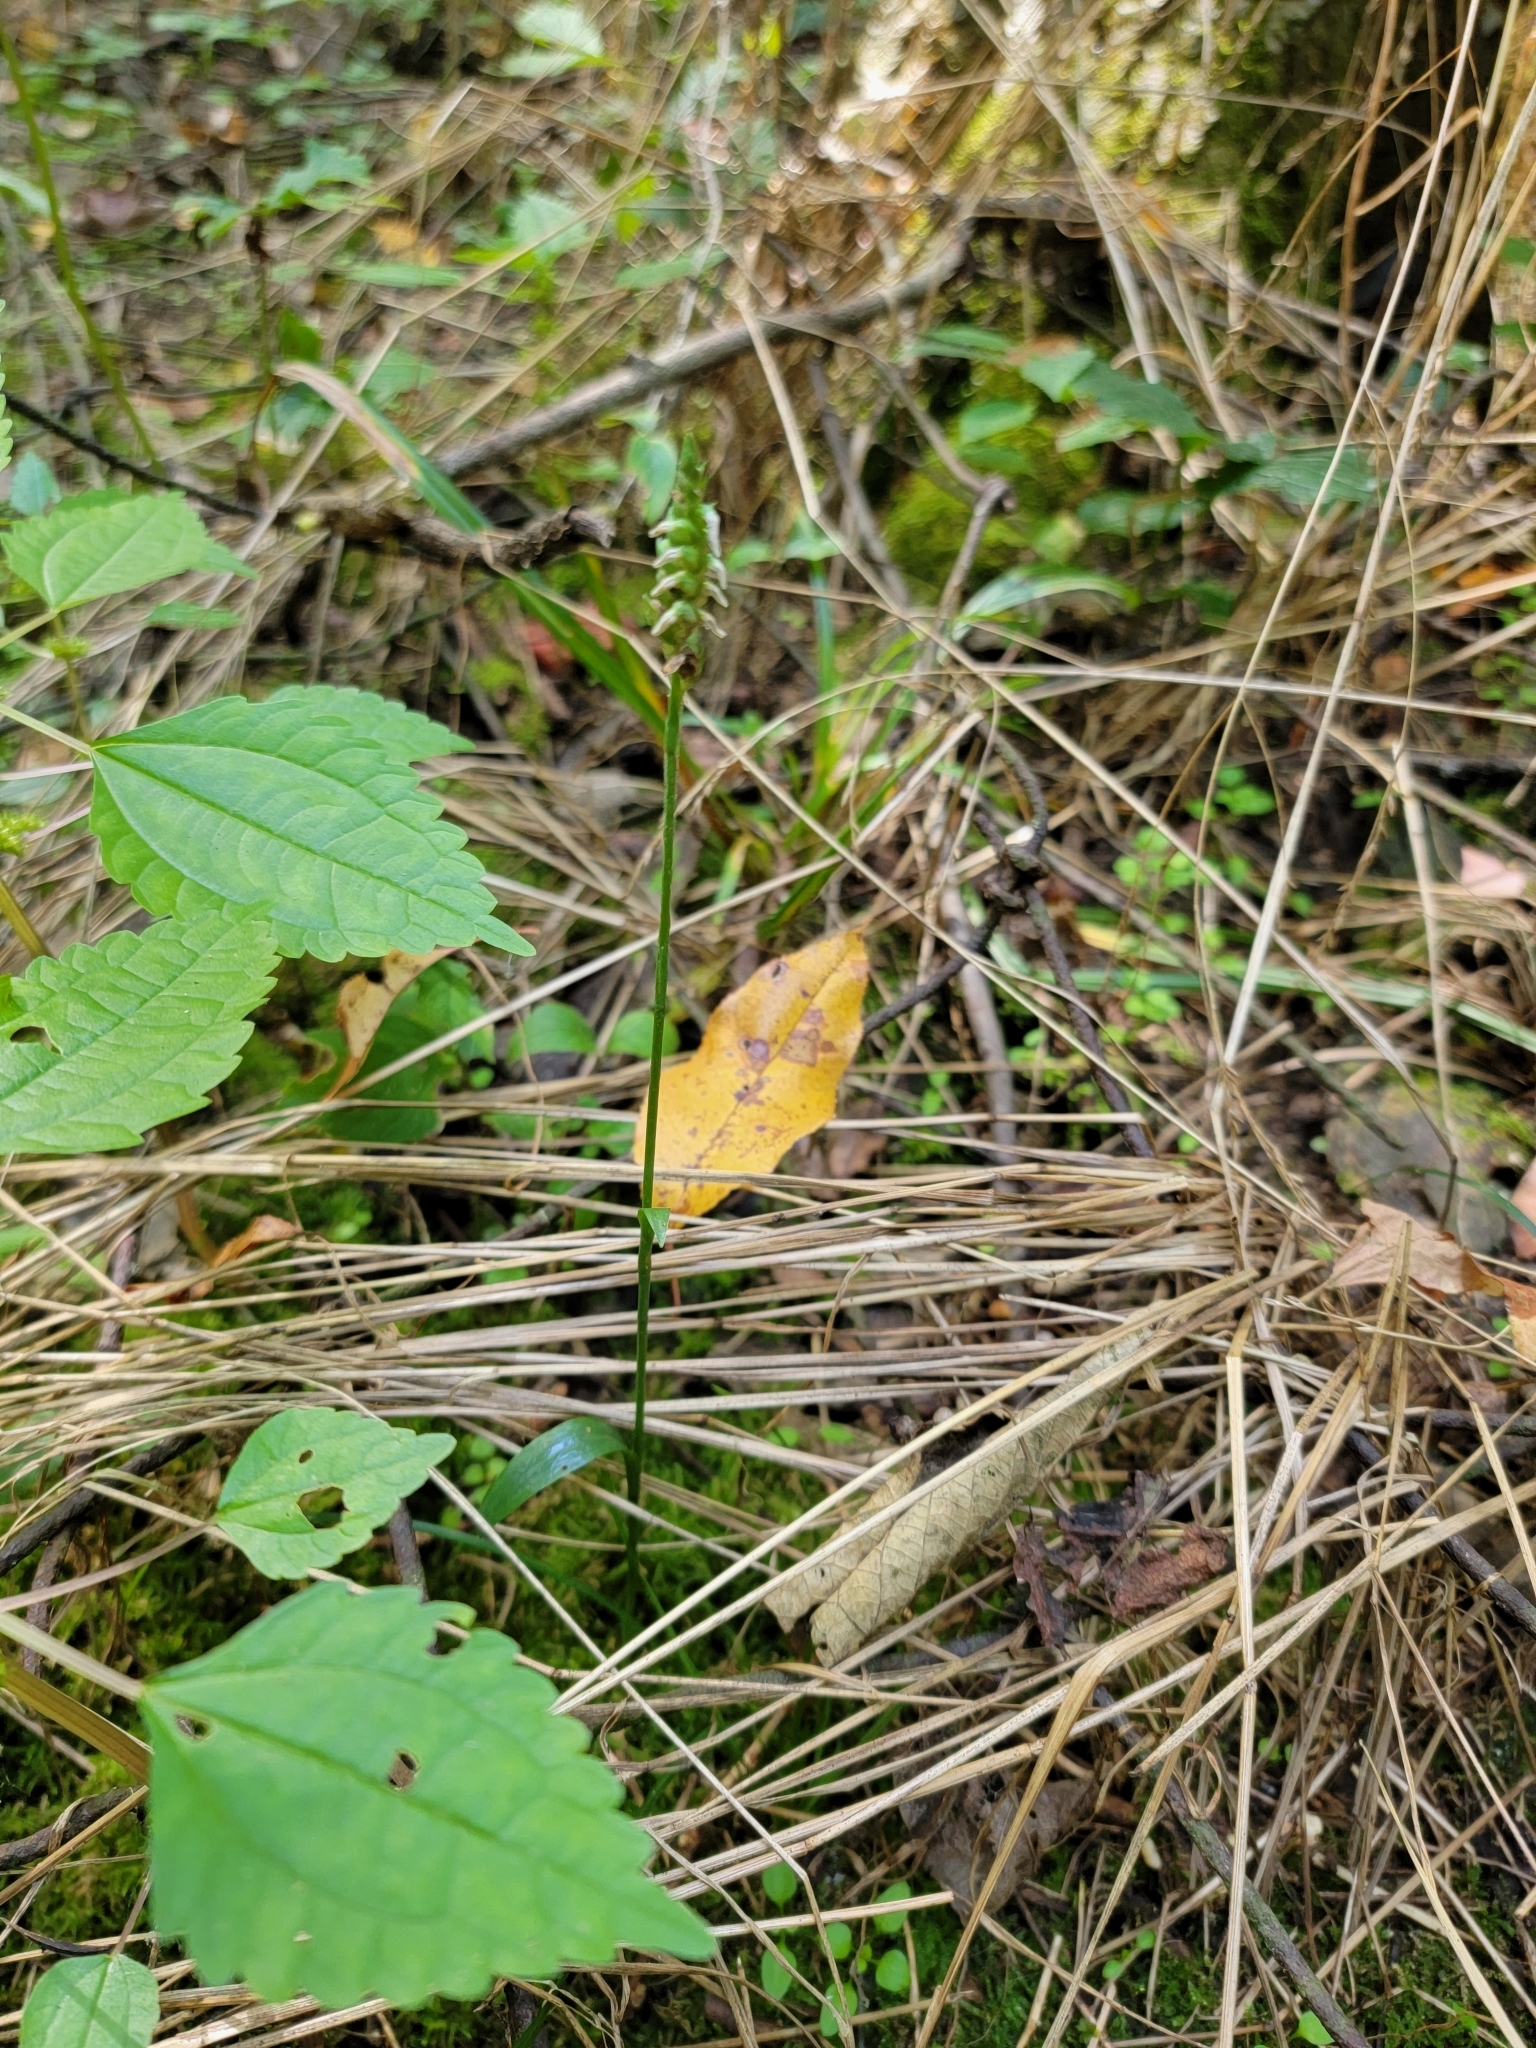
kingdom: Plantae
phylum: Tracheophyta
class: Liliopsida
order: Asparagales
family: Orchidaceae
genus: Spiranthes
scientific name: Spiranthes ovalis
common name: October ladies'-tresses
